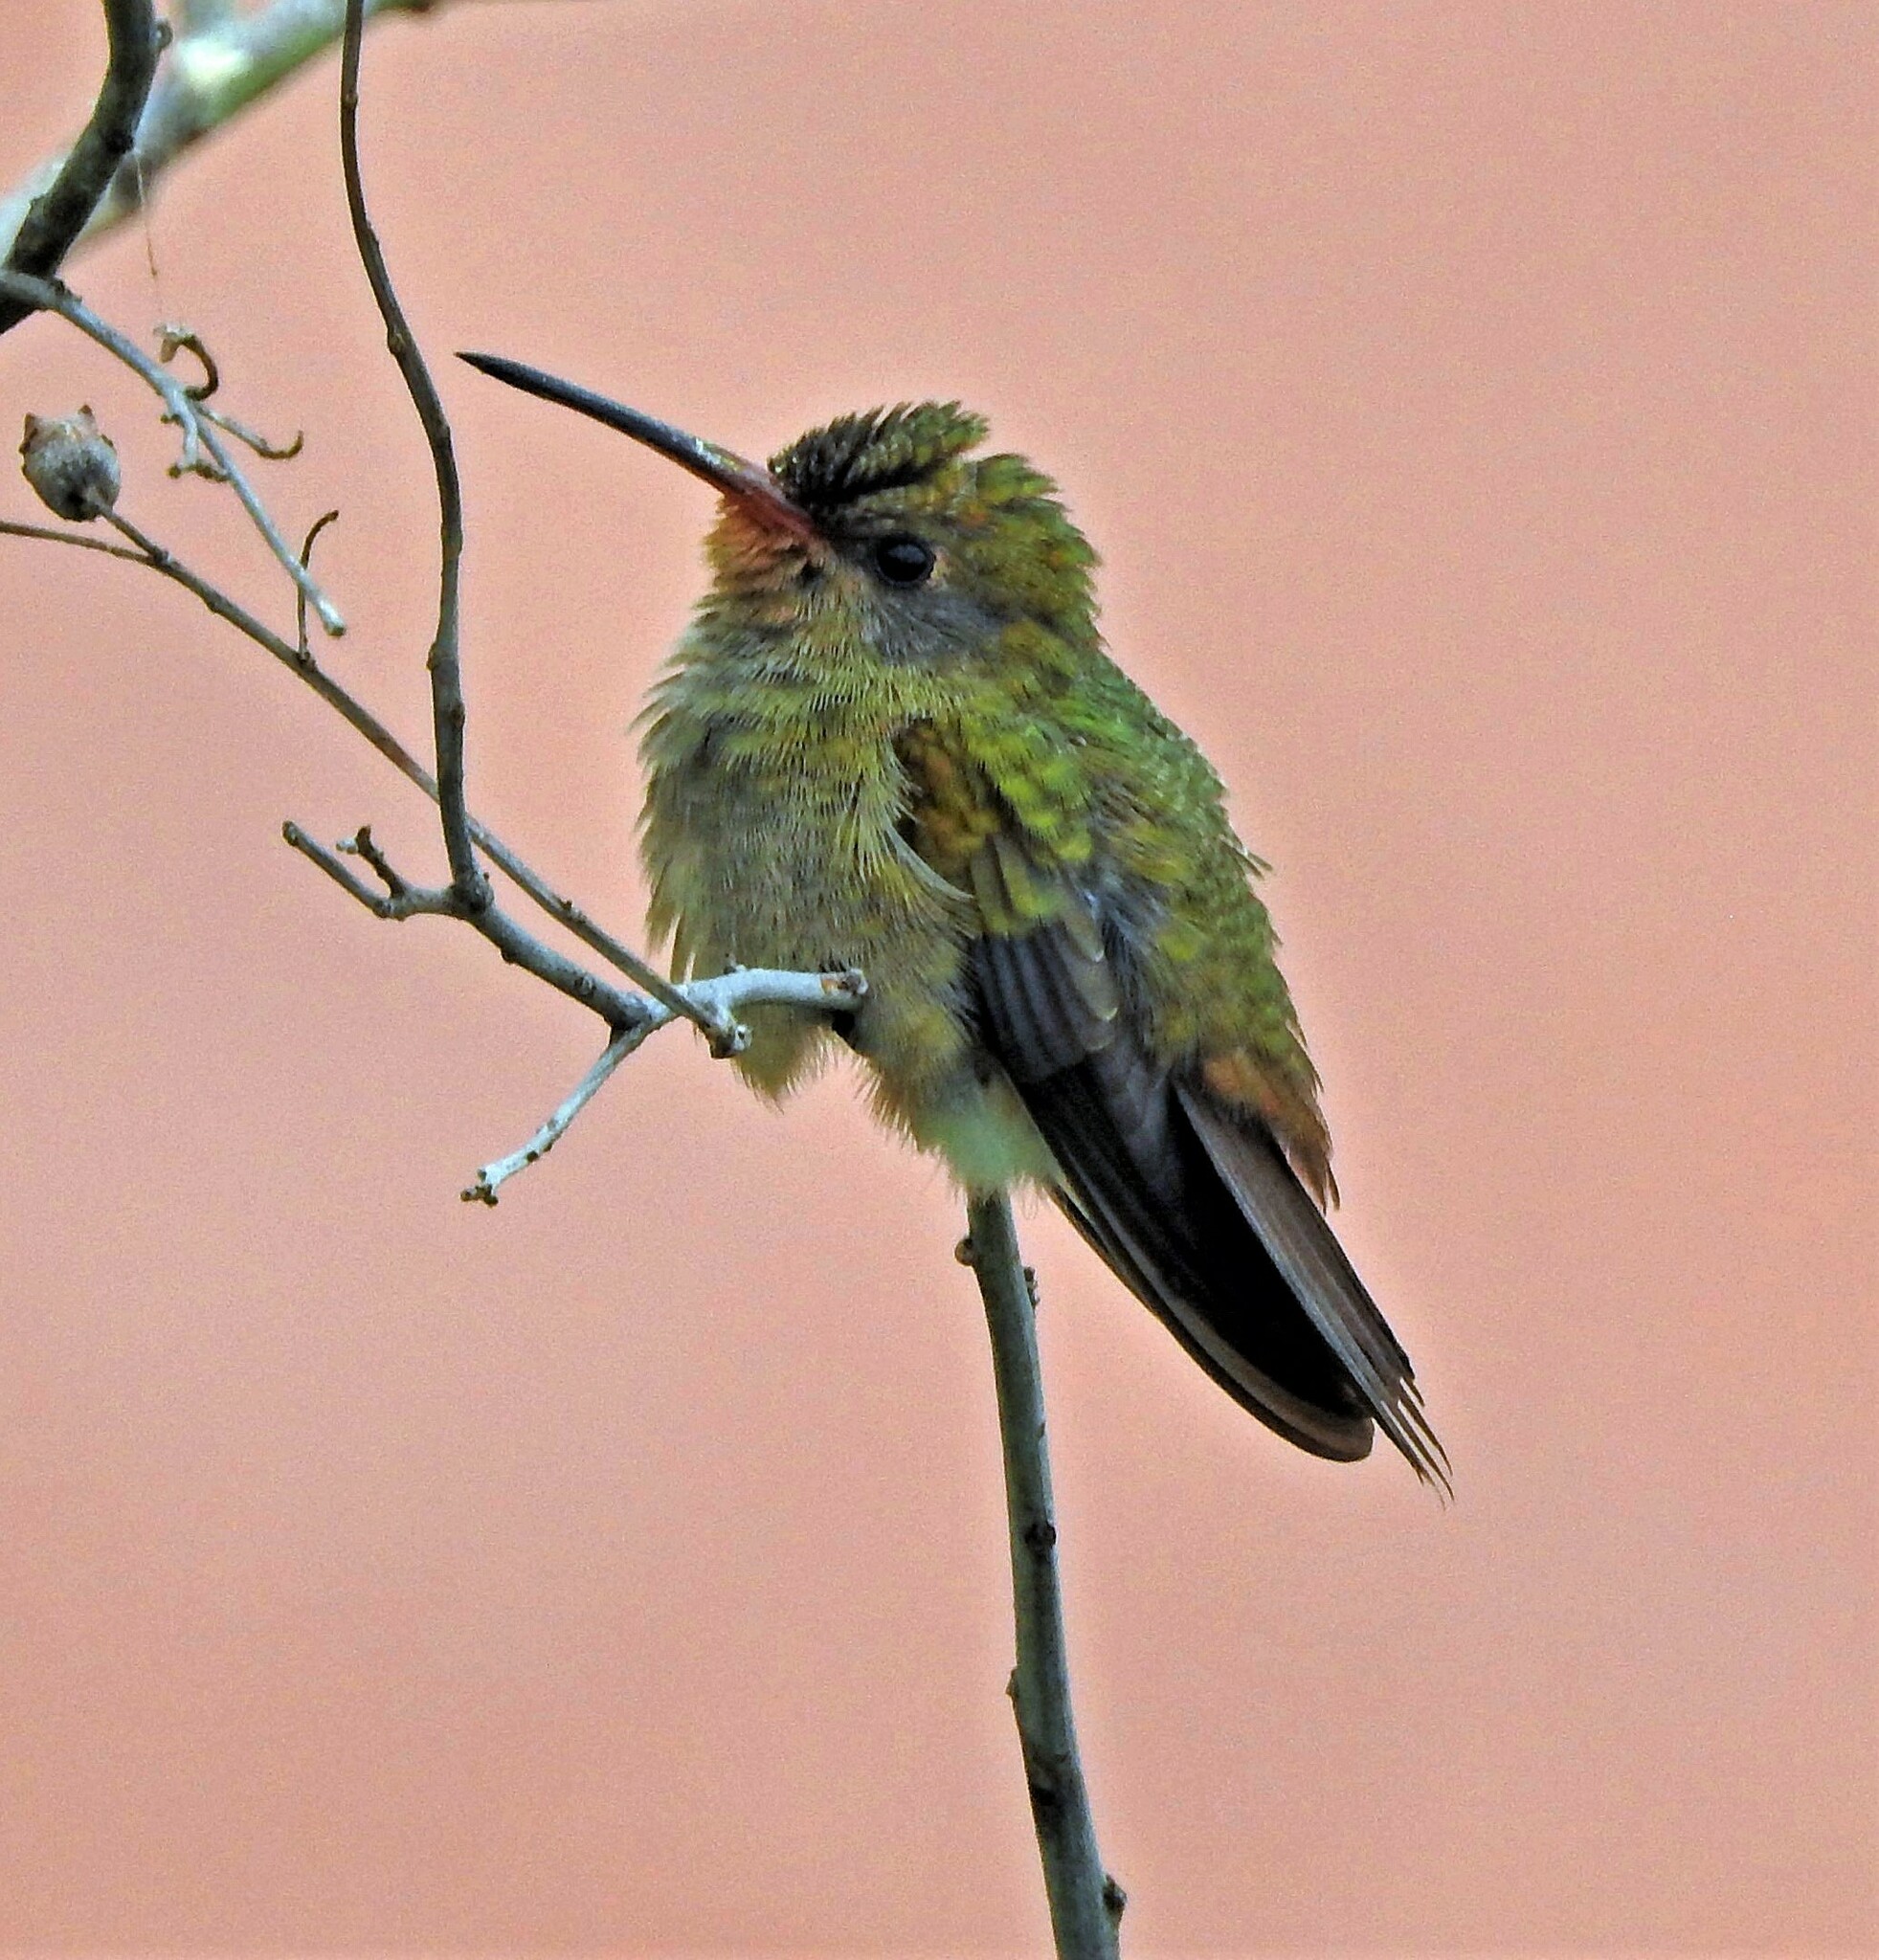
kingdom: Animalia
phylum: Chordata
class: Aves
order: Apodiformes
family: Trochilidae
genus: Hylocharis
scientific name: Hylocharis chrysura
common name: Gilded sapphire
